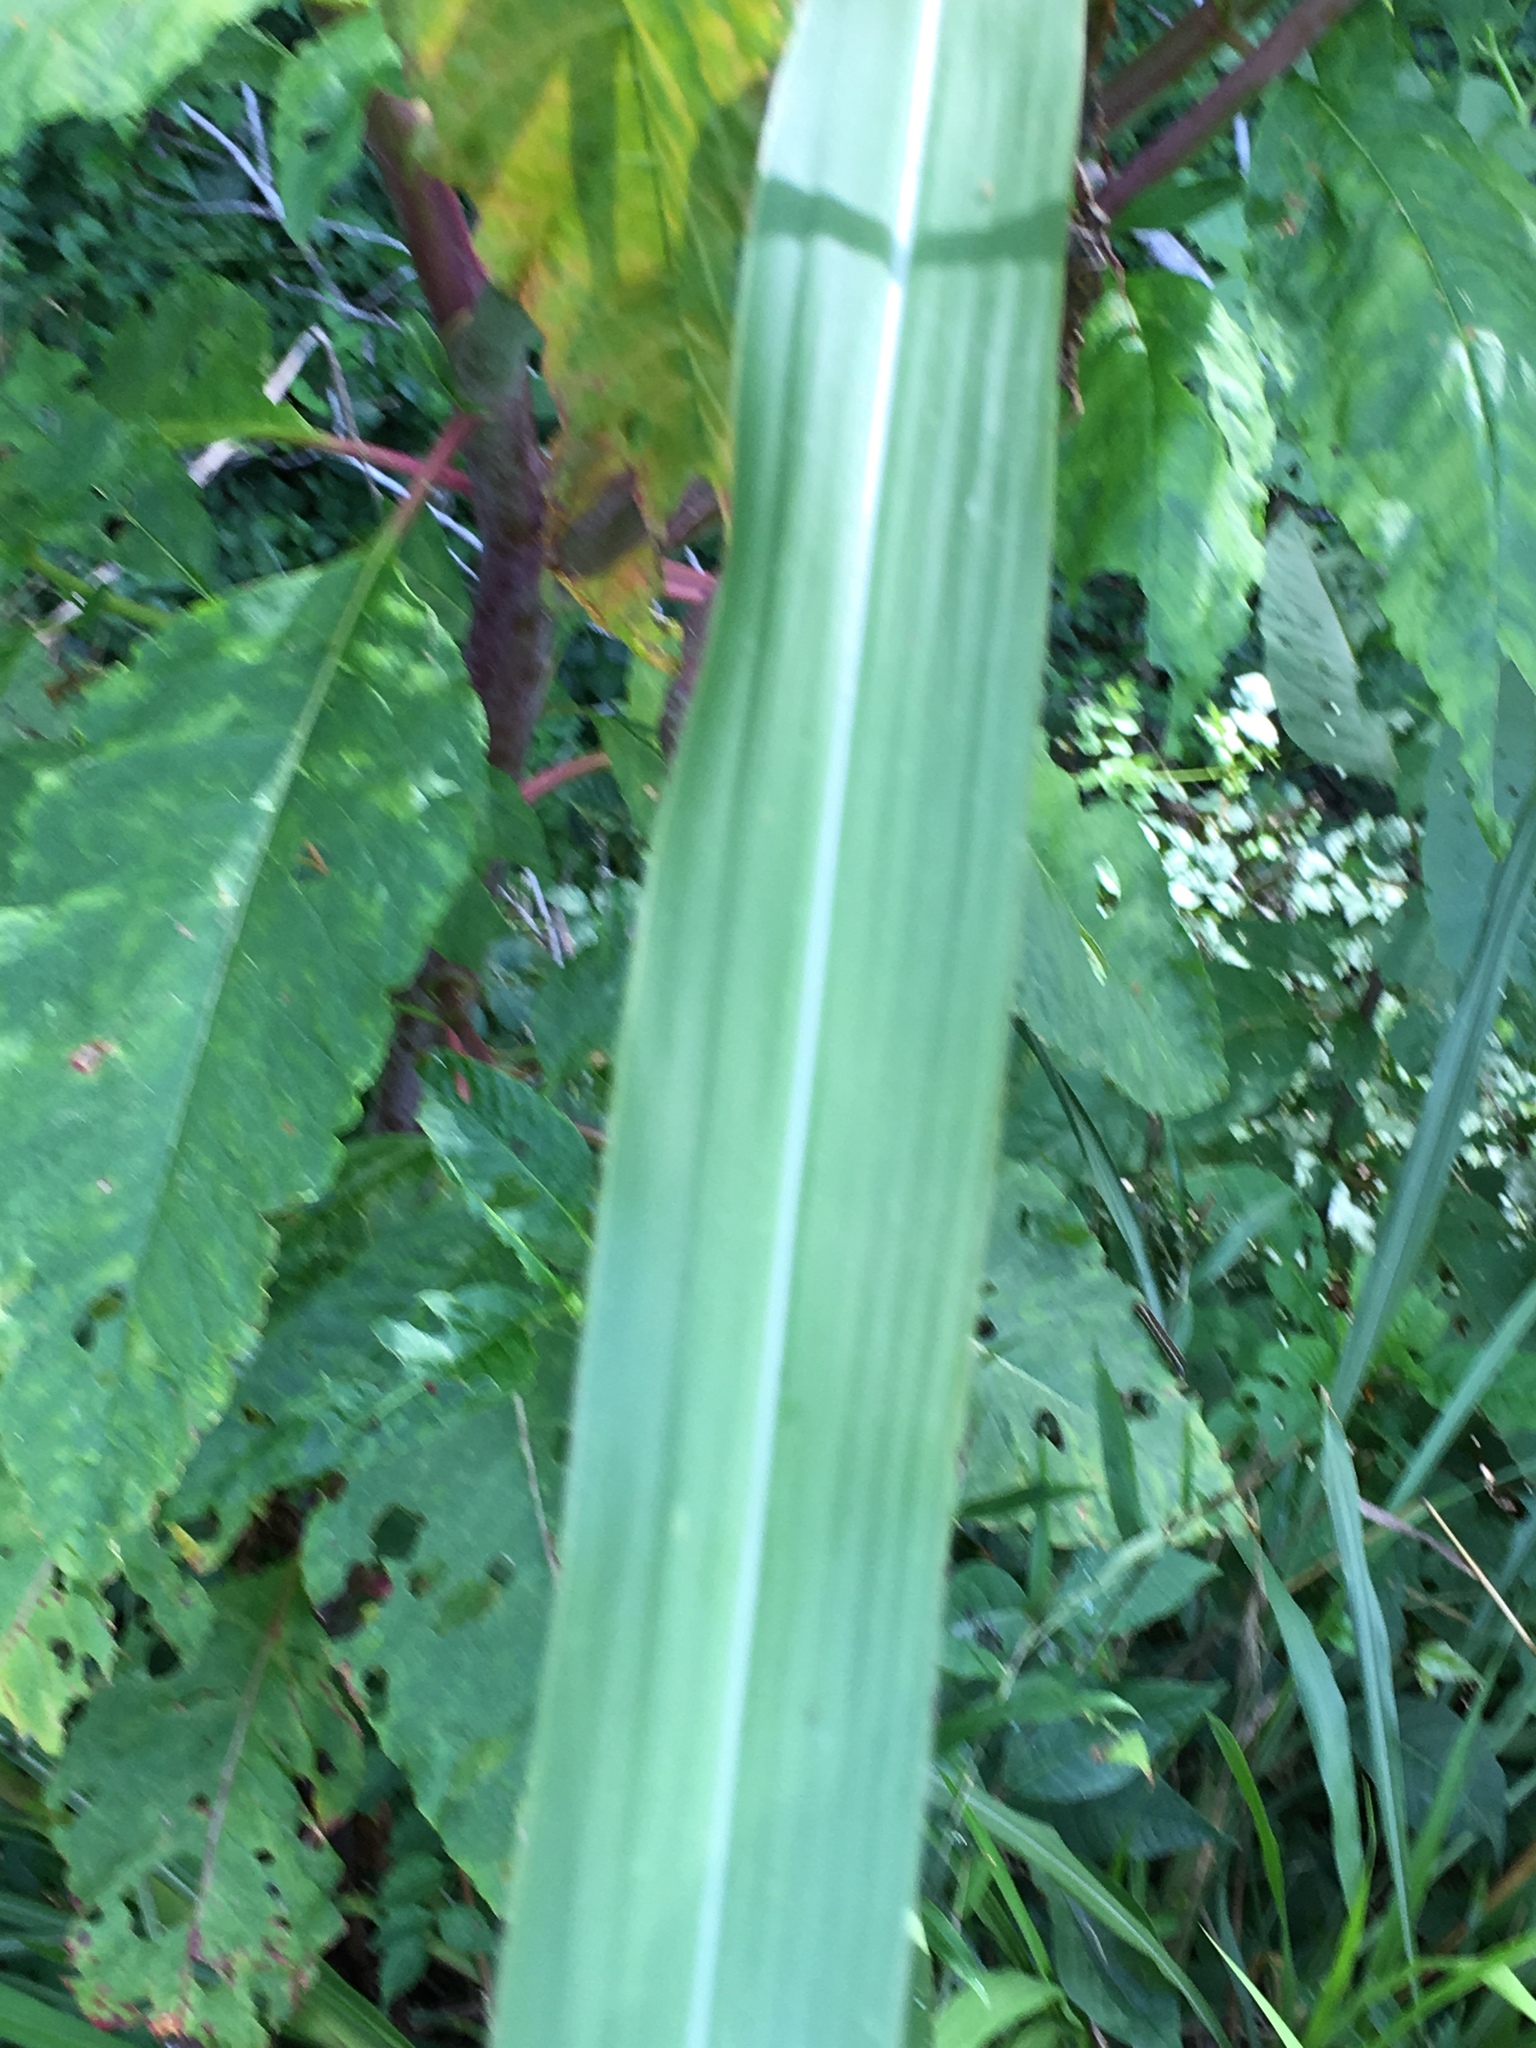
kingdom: Plantae
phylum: Tracheophyta
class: Liliopsida
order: Poales
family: Poaceae
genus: Tripsacum
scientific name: Tripsacum dactyloides
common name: Buffalo-grass
